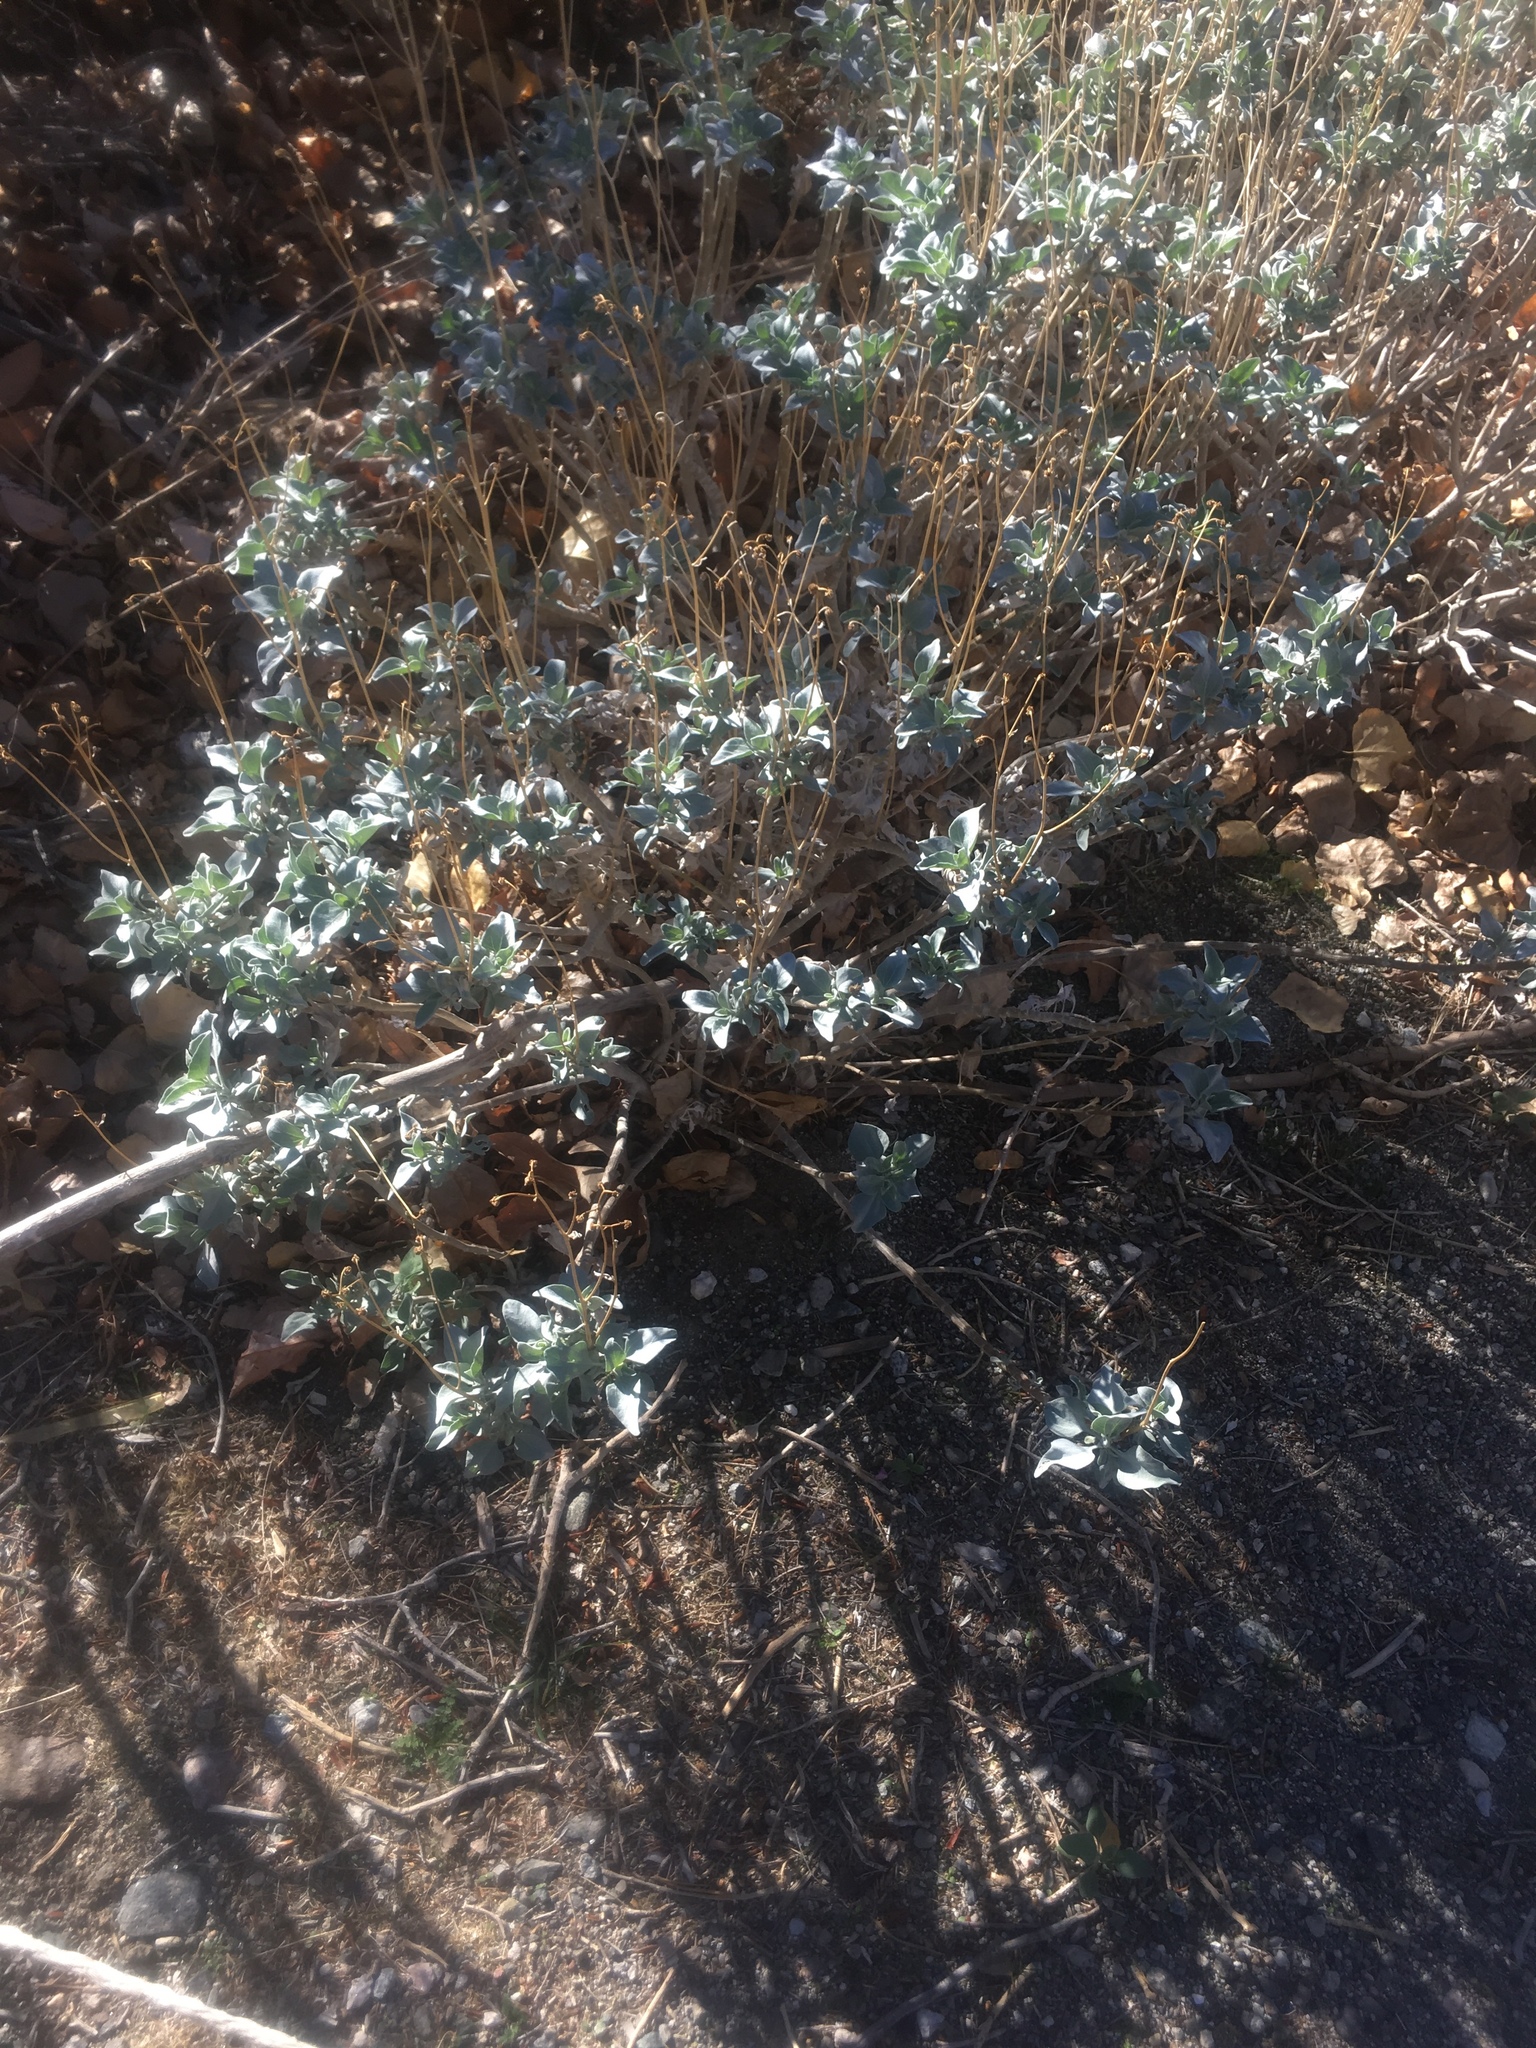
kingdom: Plantae
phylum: Tracheophyta
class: Magnoliopsida
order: Asterales
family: Asteraceae
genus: Encelia
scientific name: Encelia farinosa
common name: Brittlebush
